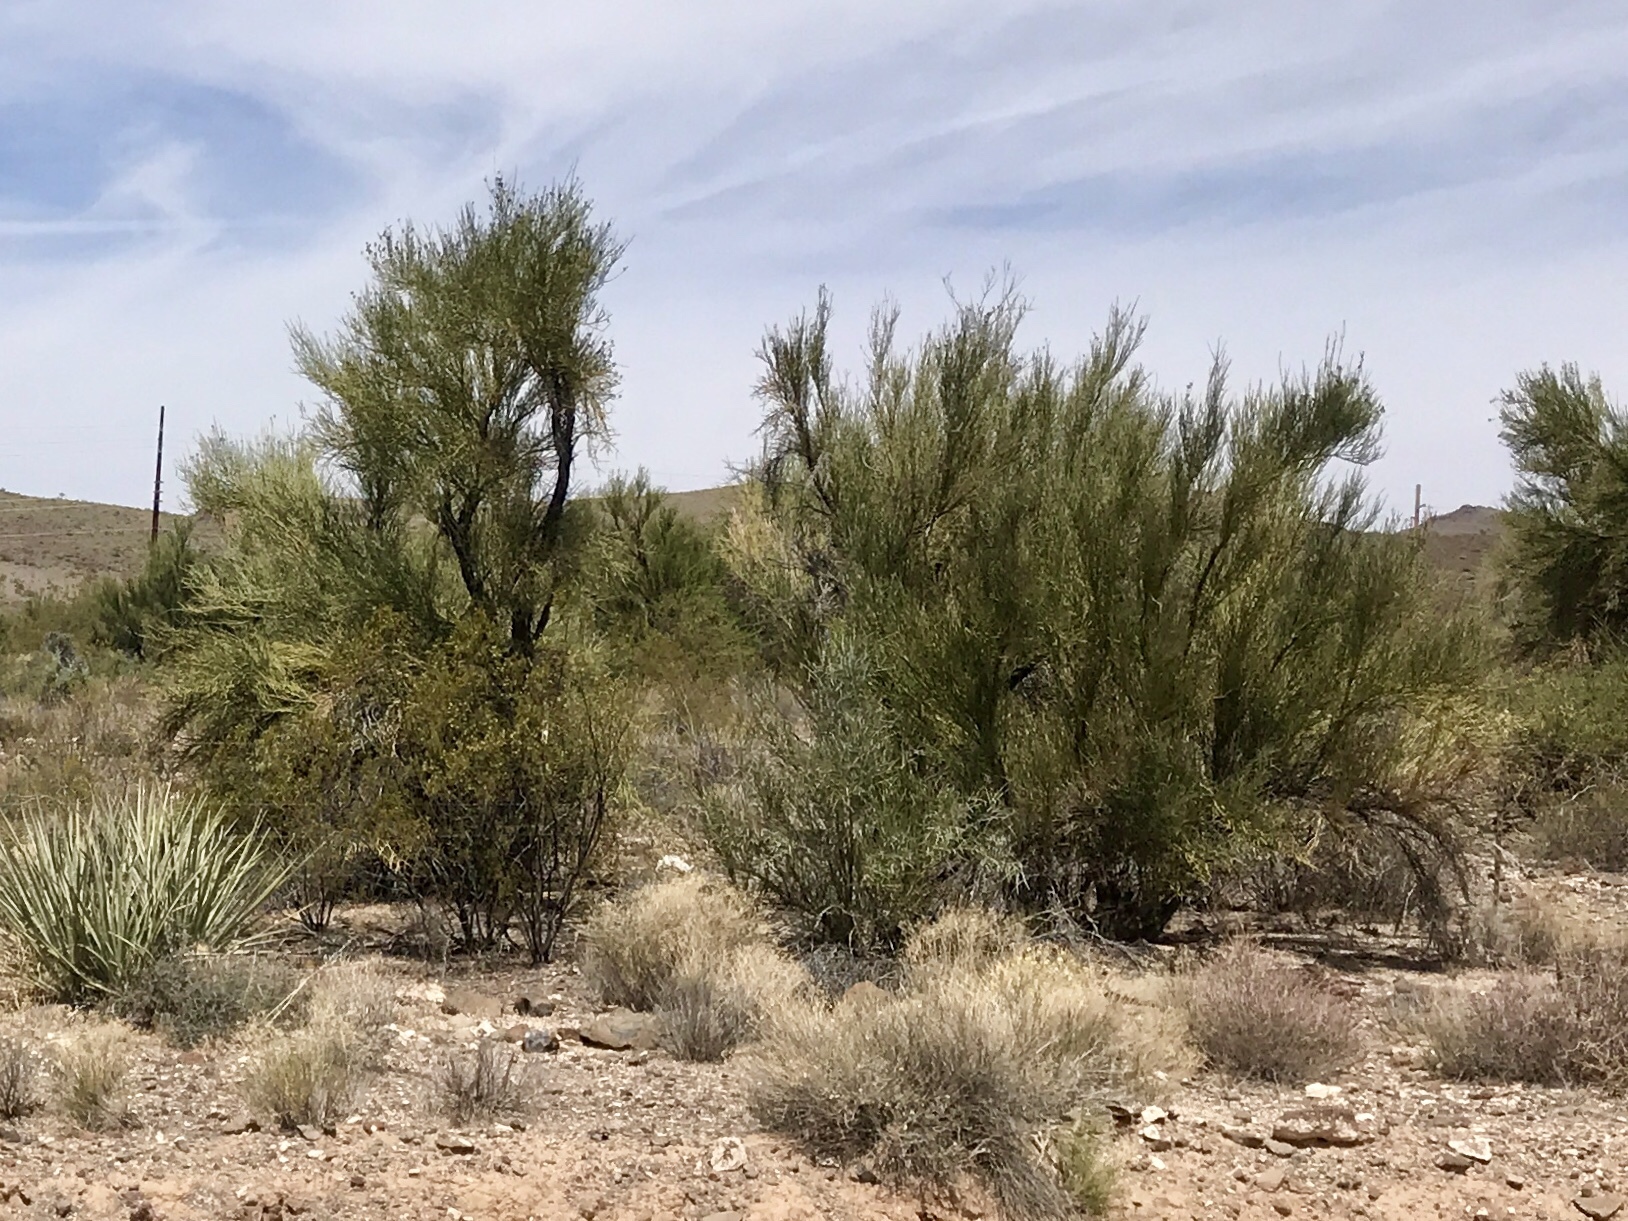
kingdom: Plantae
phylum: Tracheophyta
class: Magnoliopsida
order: Celastrales
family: Celastraceae
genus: Canotia
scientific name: Canotia holacantha
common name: Crucifixion thorns
